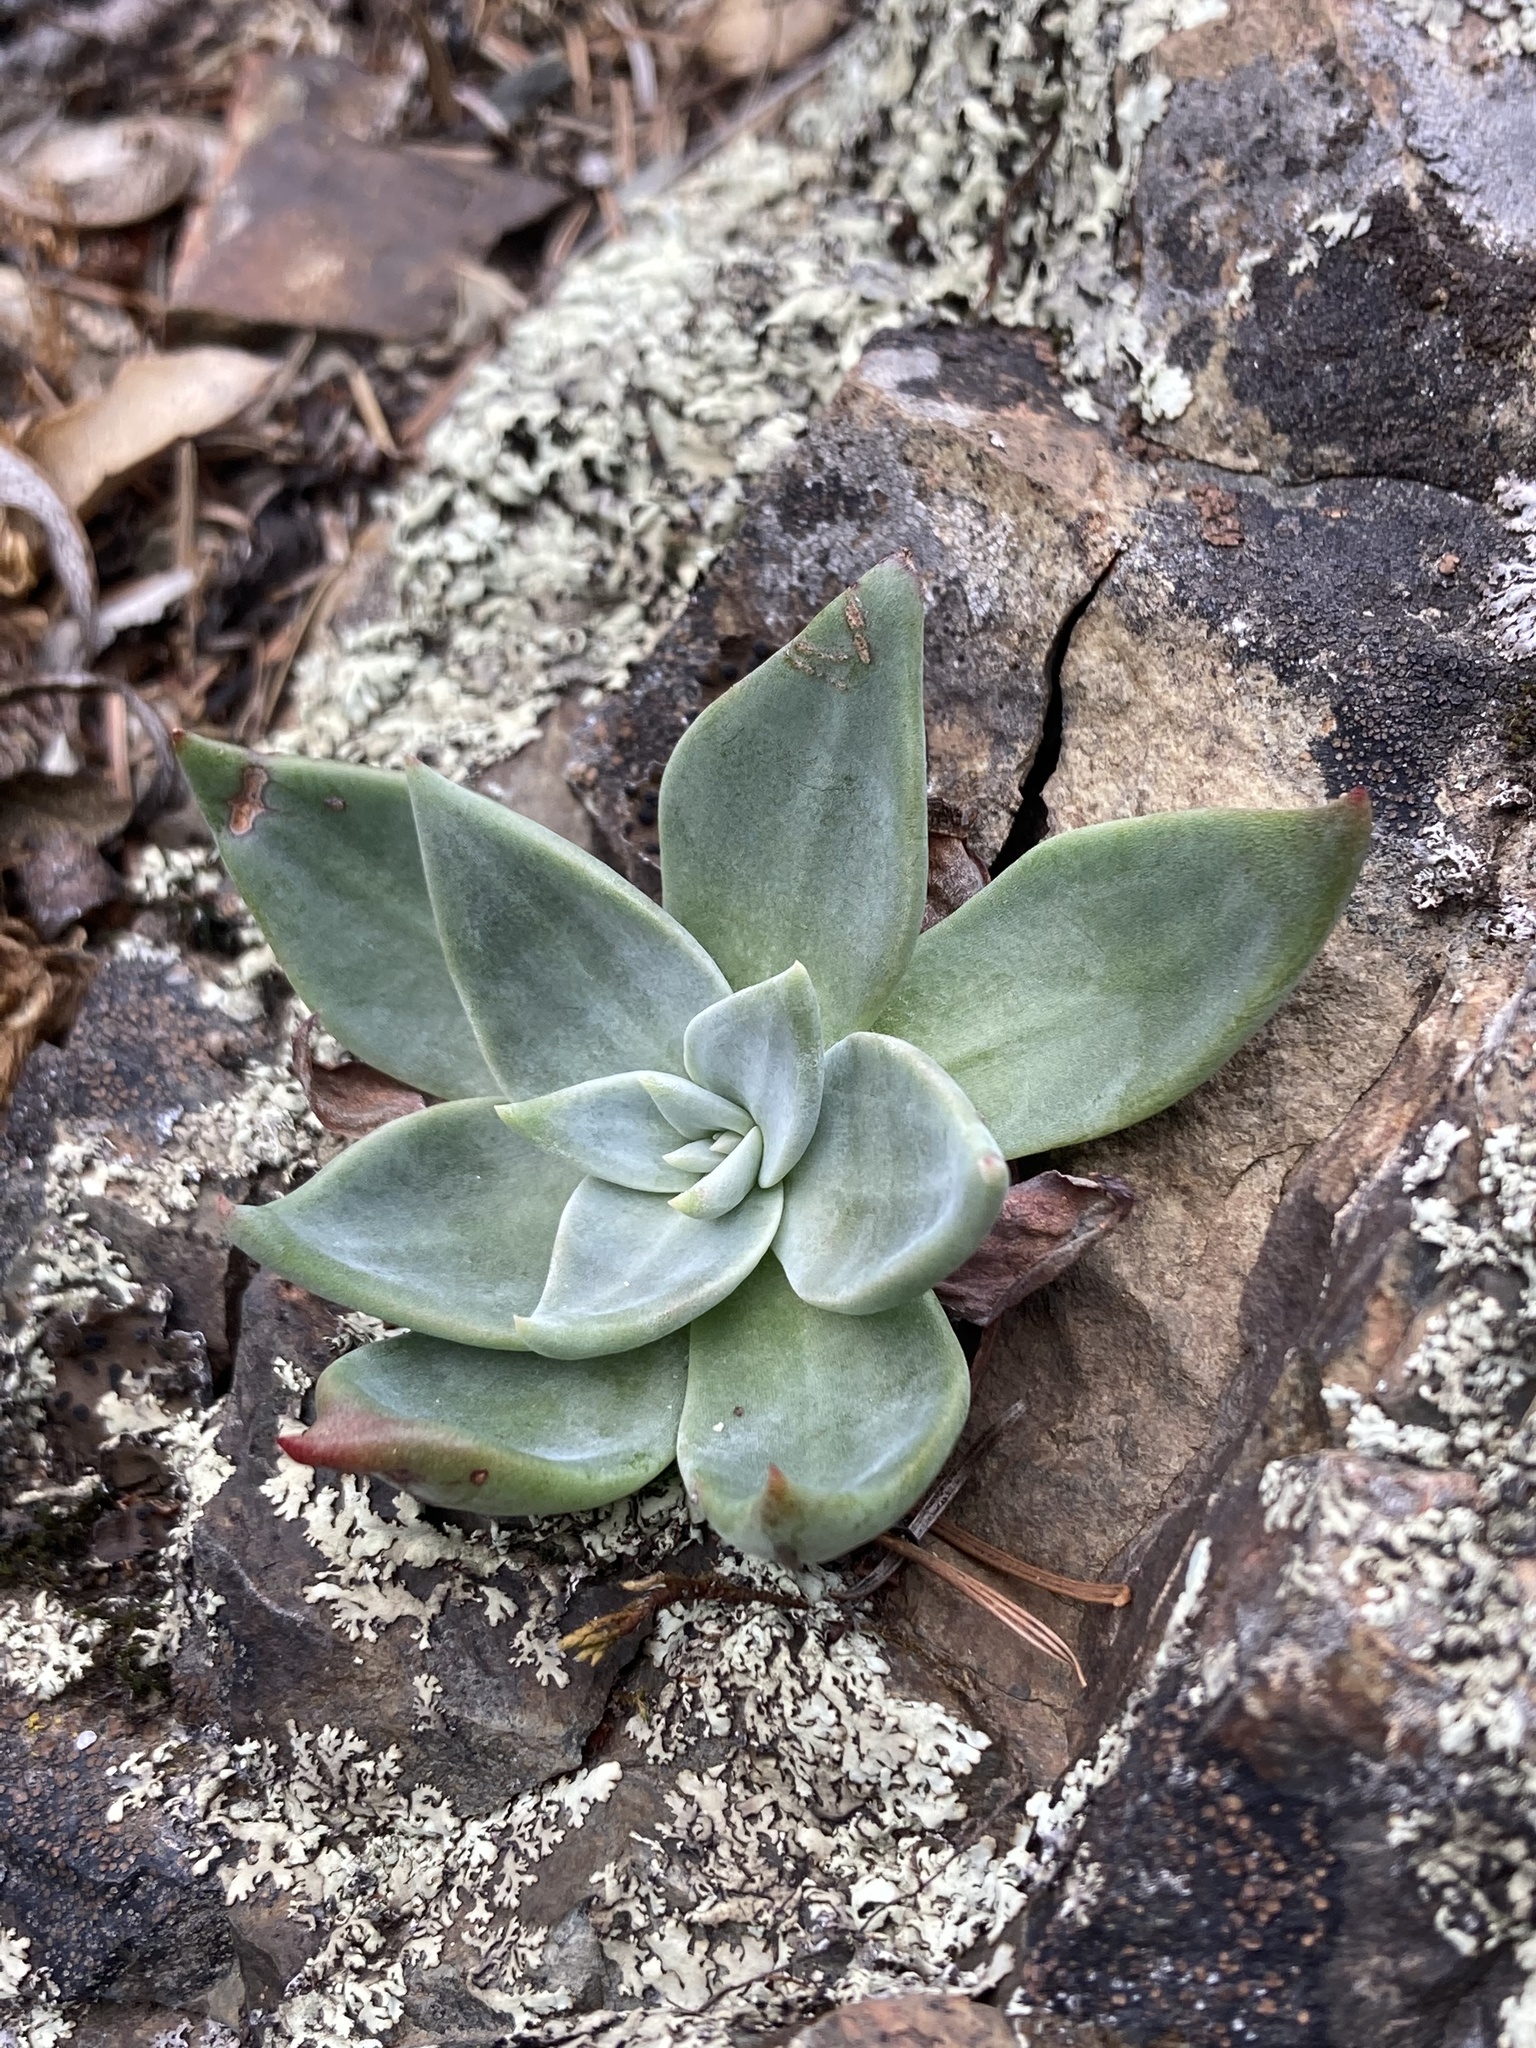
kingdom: Plantae
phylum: Tracheophyta
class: Magnoliopsida
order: Saxifragales
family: Crassulaceae
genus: Dudleya
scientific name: Dudleya cymosa
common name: Canyon dudleya
